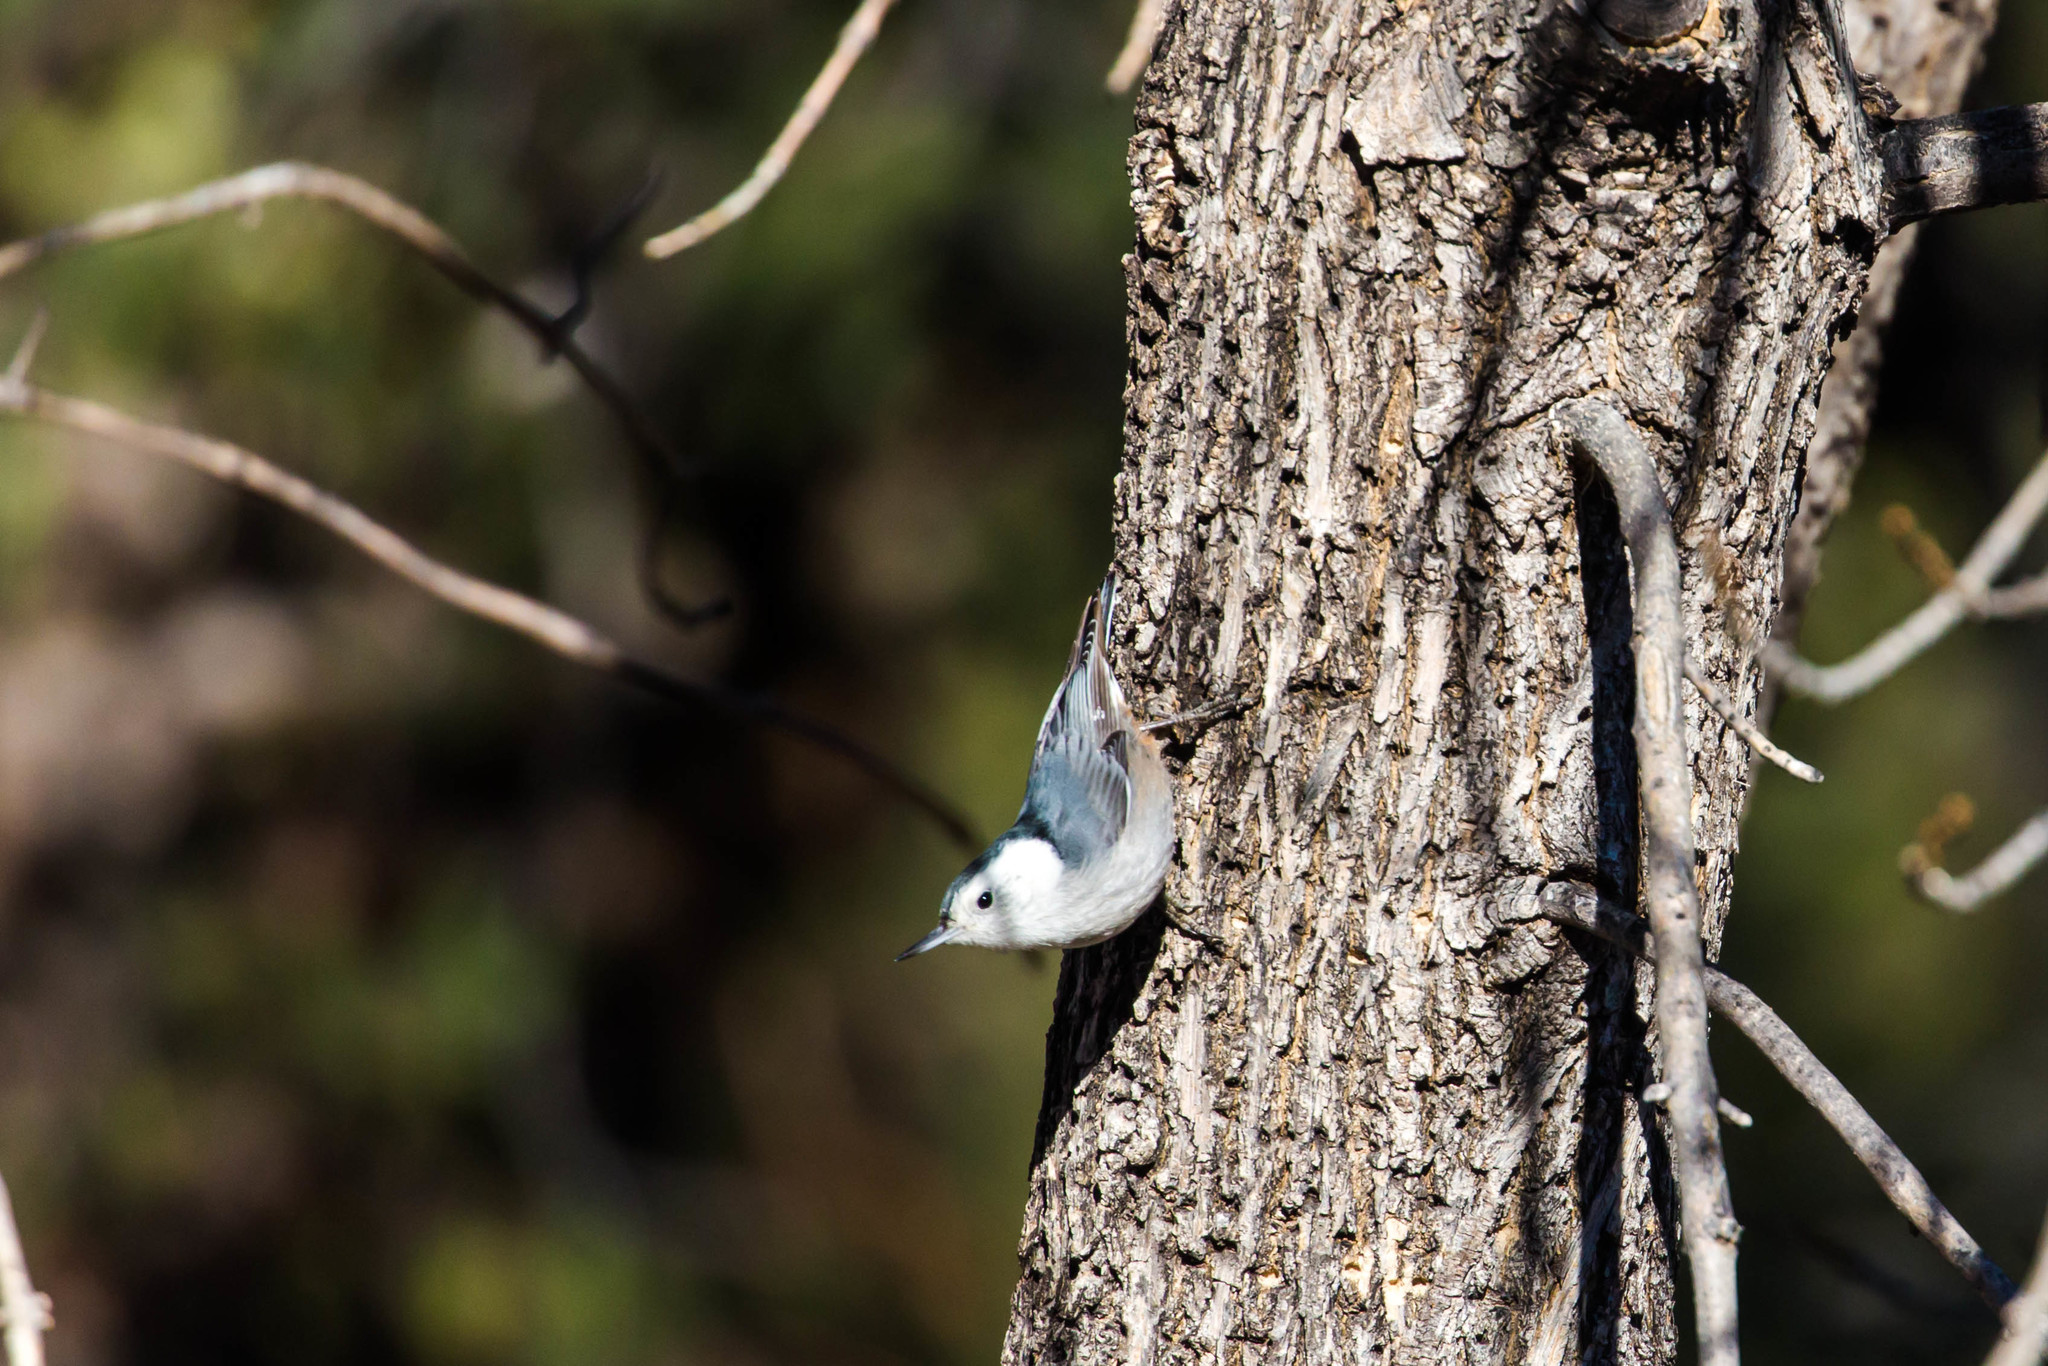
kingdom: Animalia
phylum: Chordata
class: Aves
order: Passeriformes
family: Sittidae
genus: Sitta
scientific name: Sitta carolinensis
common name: White-breasted nuthatch
